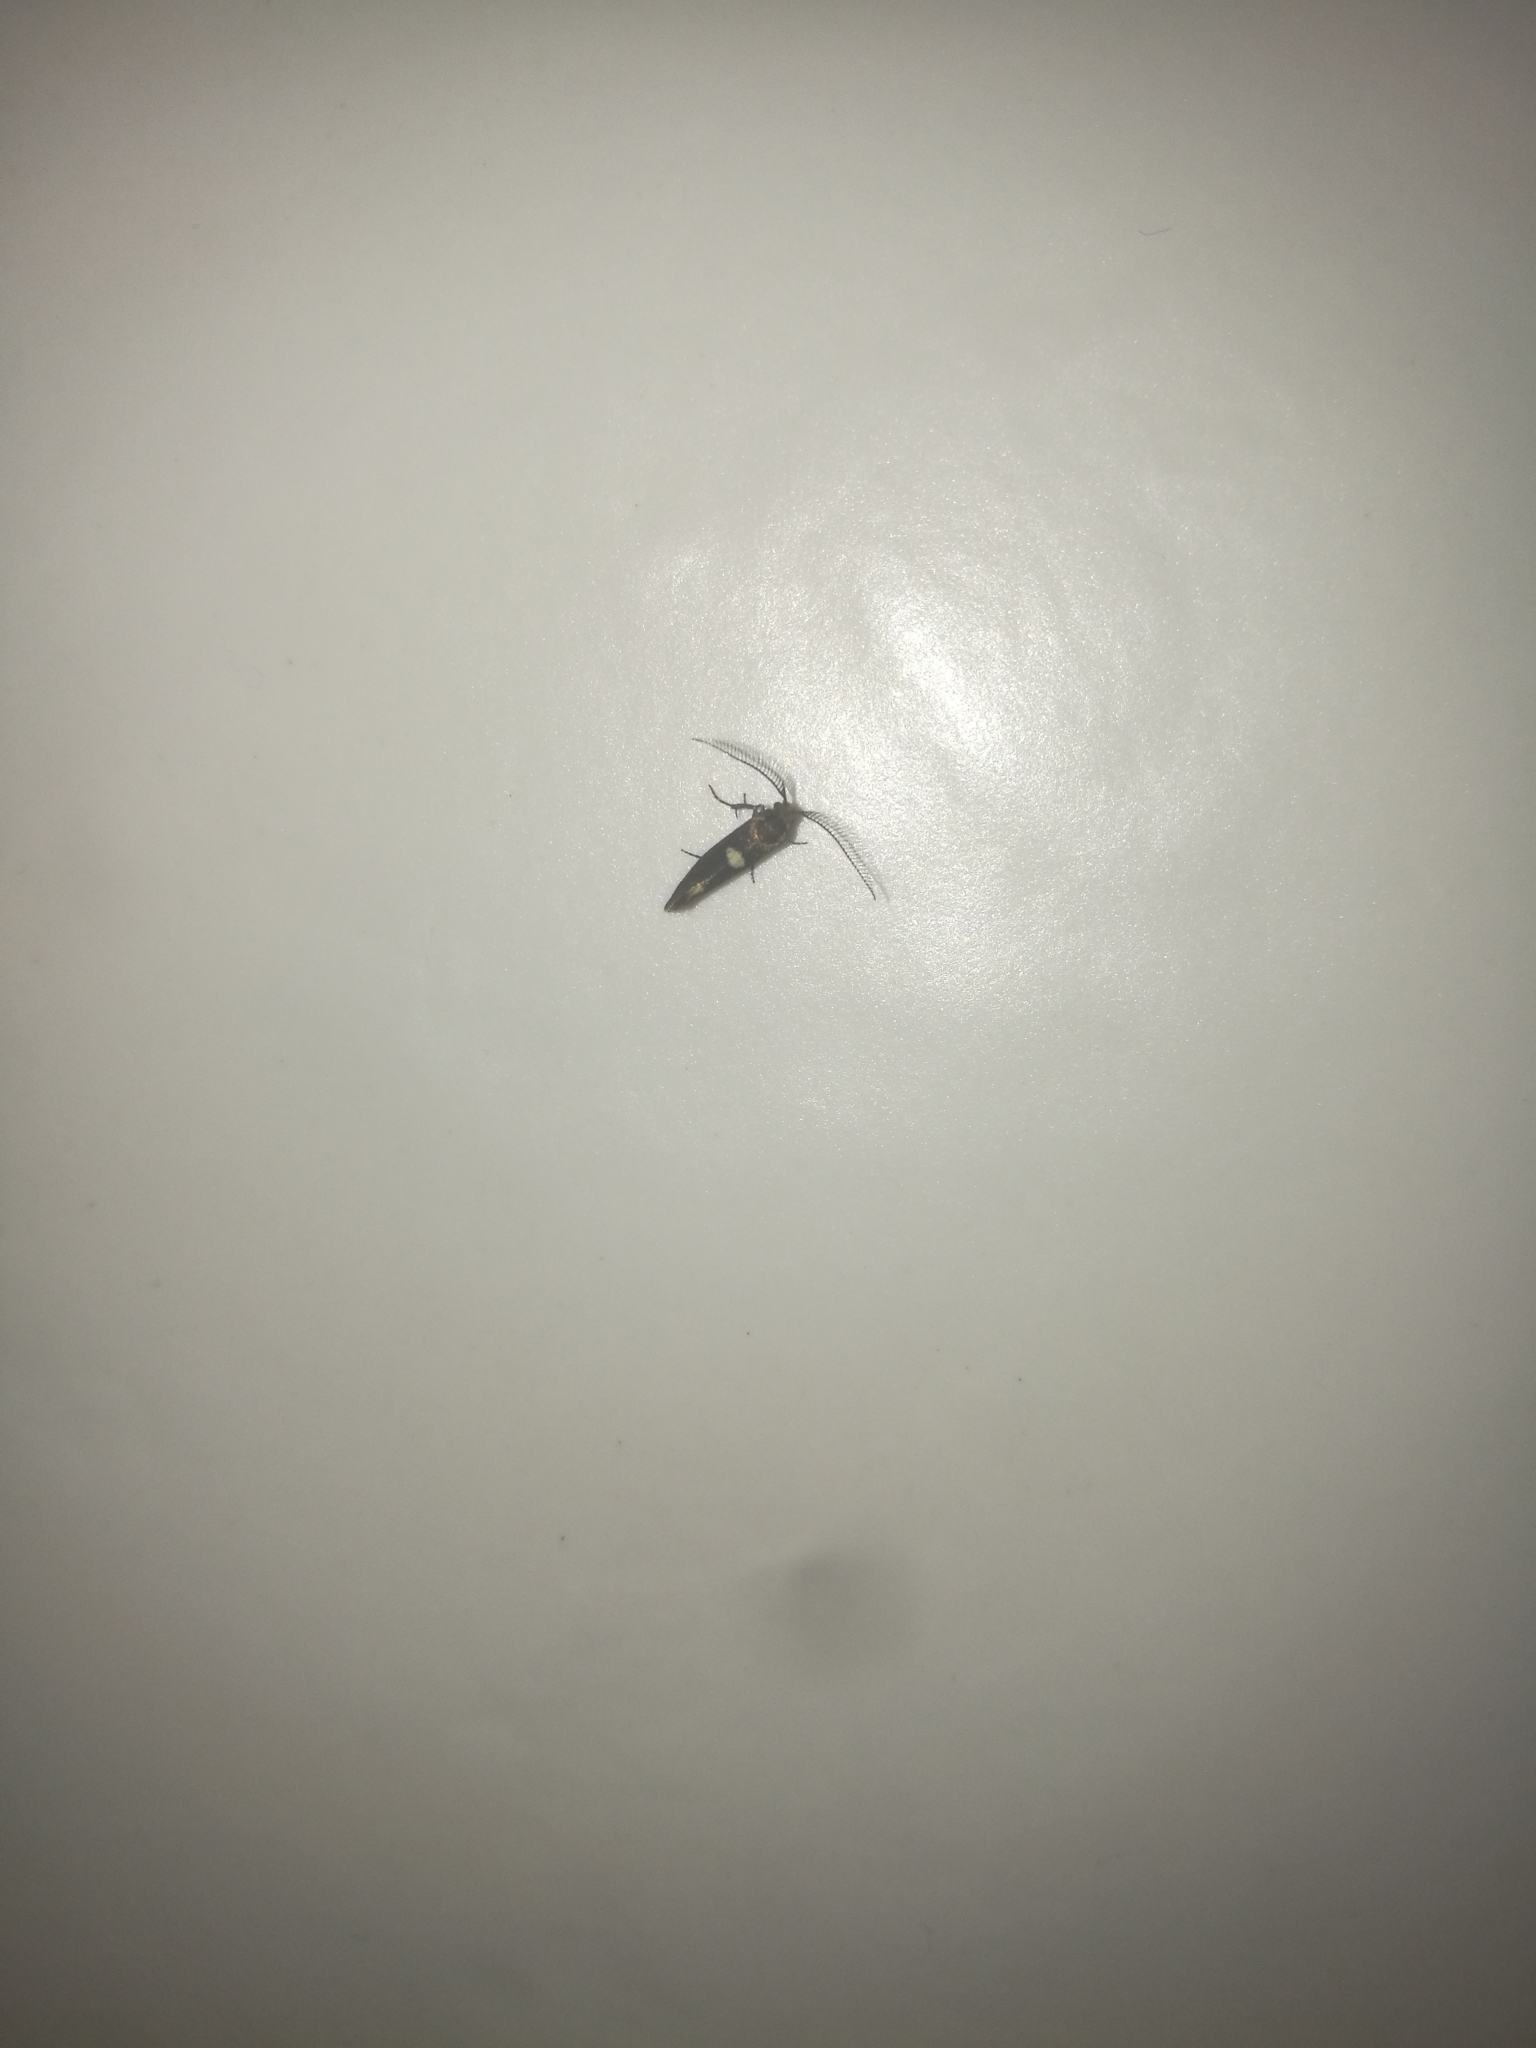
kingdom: Animalia
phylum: Arthropoda
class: Insecta
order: Lepidoptera
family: Incurvariidae
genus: Incurvaria
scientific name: Incurvaria masculella
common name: Feathered leaf-cutter
